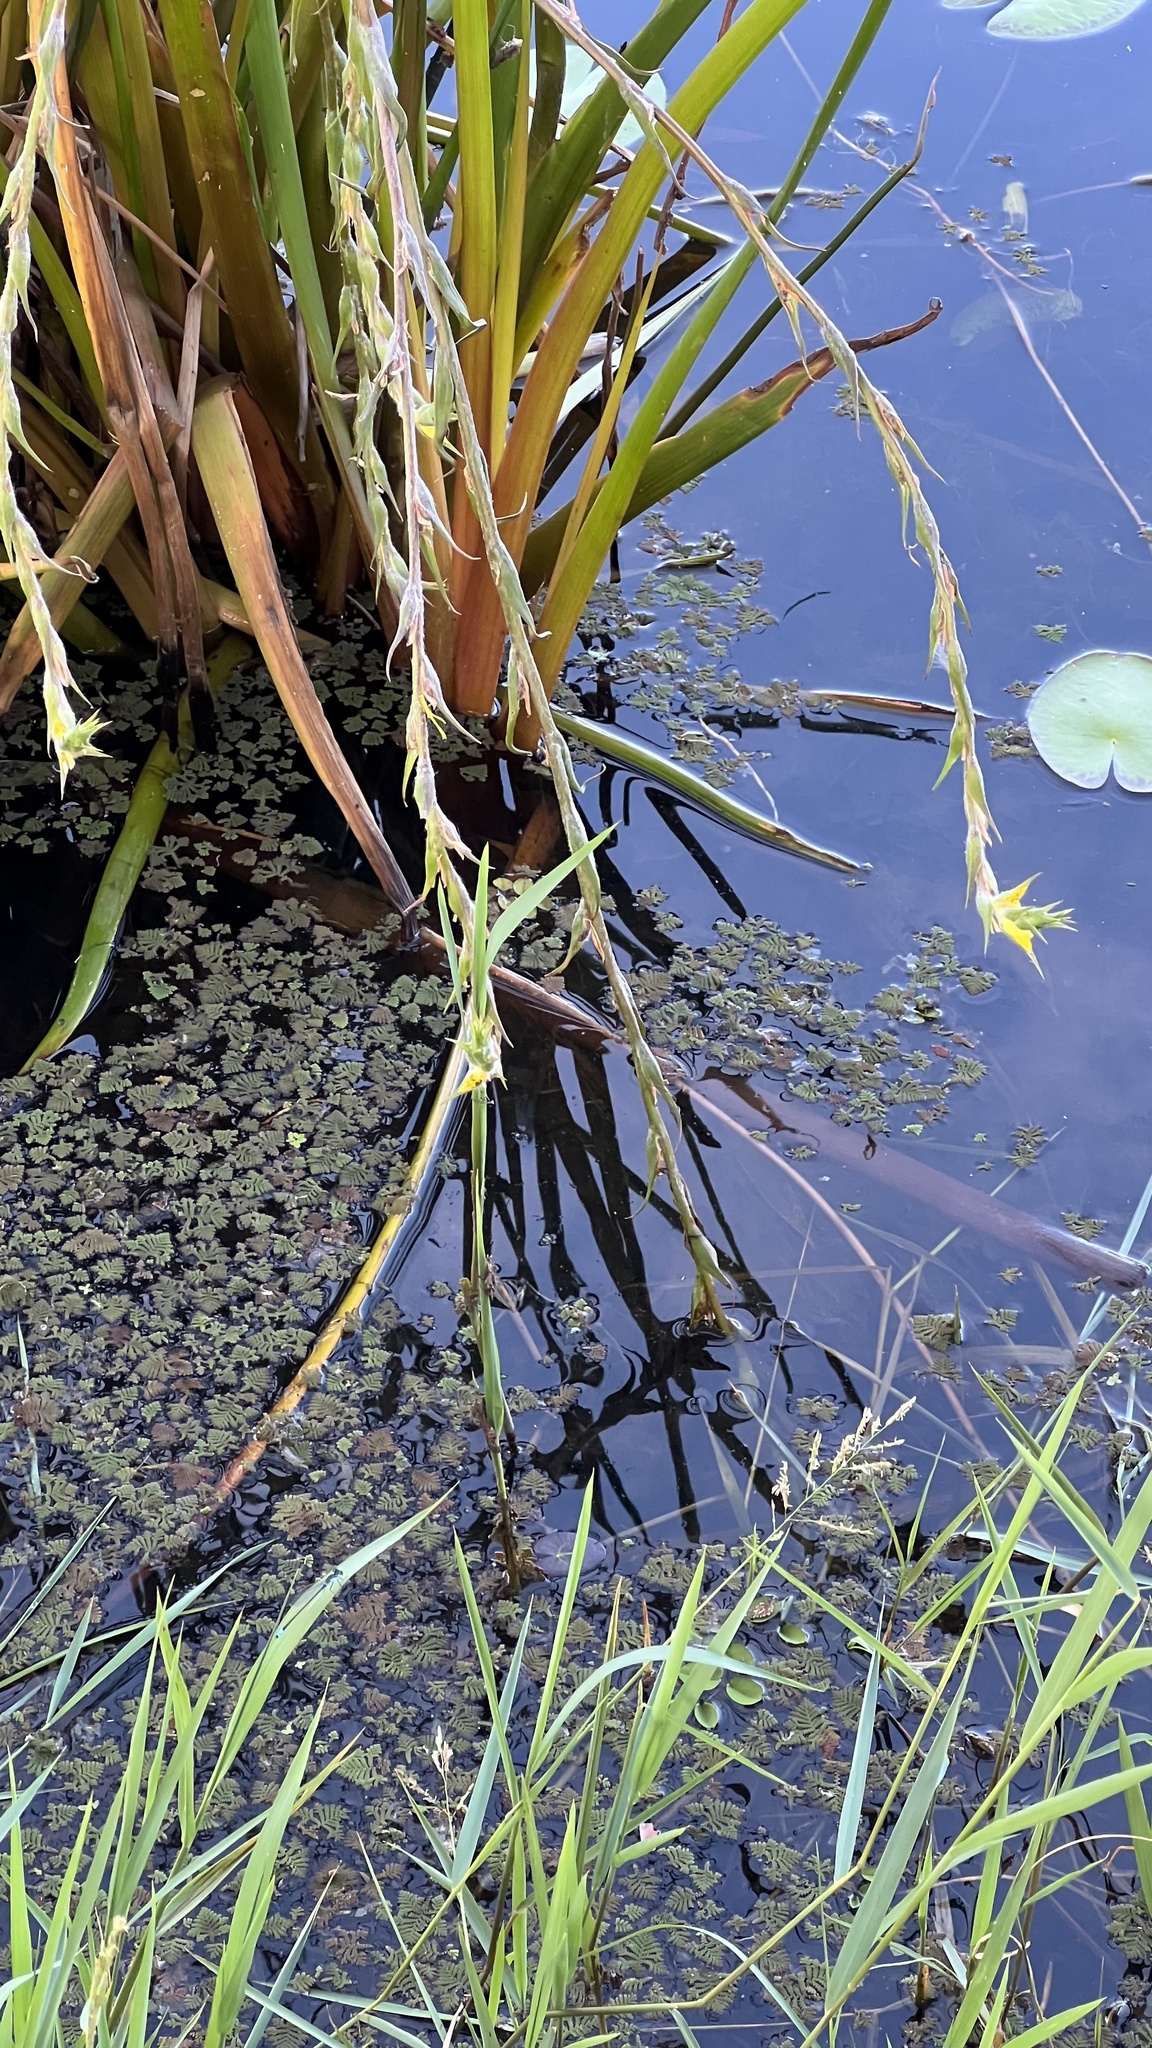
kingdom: Plantae
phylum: Tracheophyta
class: Liliopsida
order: Commelinales
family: Philydraceae
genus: Philydrum
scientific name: Philydrum lanuginosum
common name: Woolly frog's mouth
